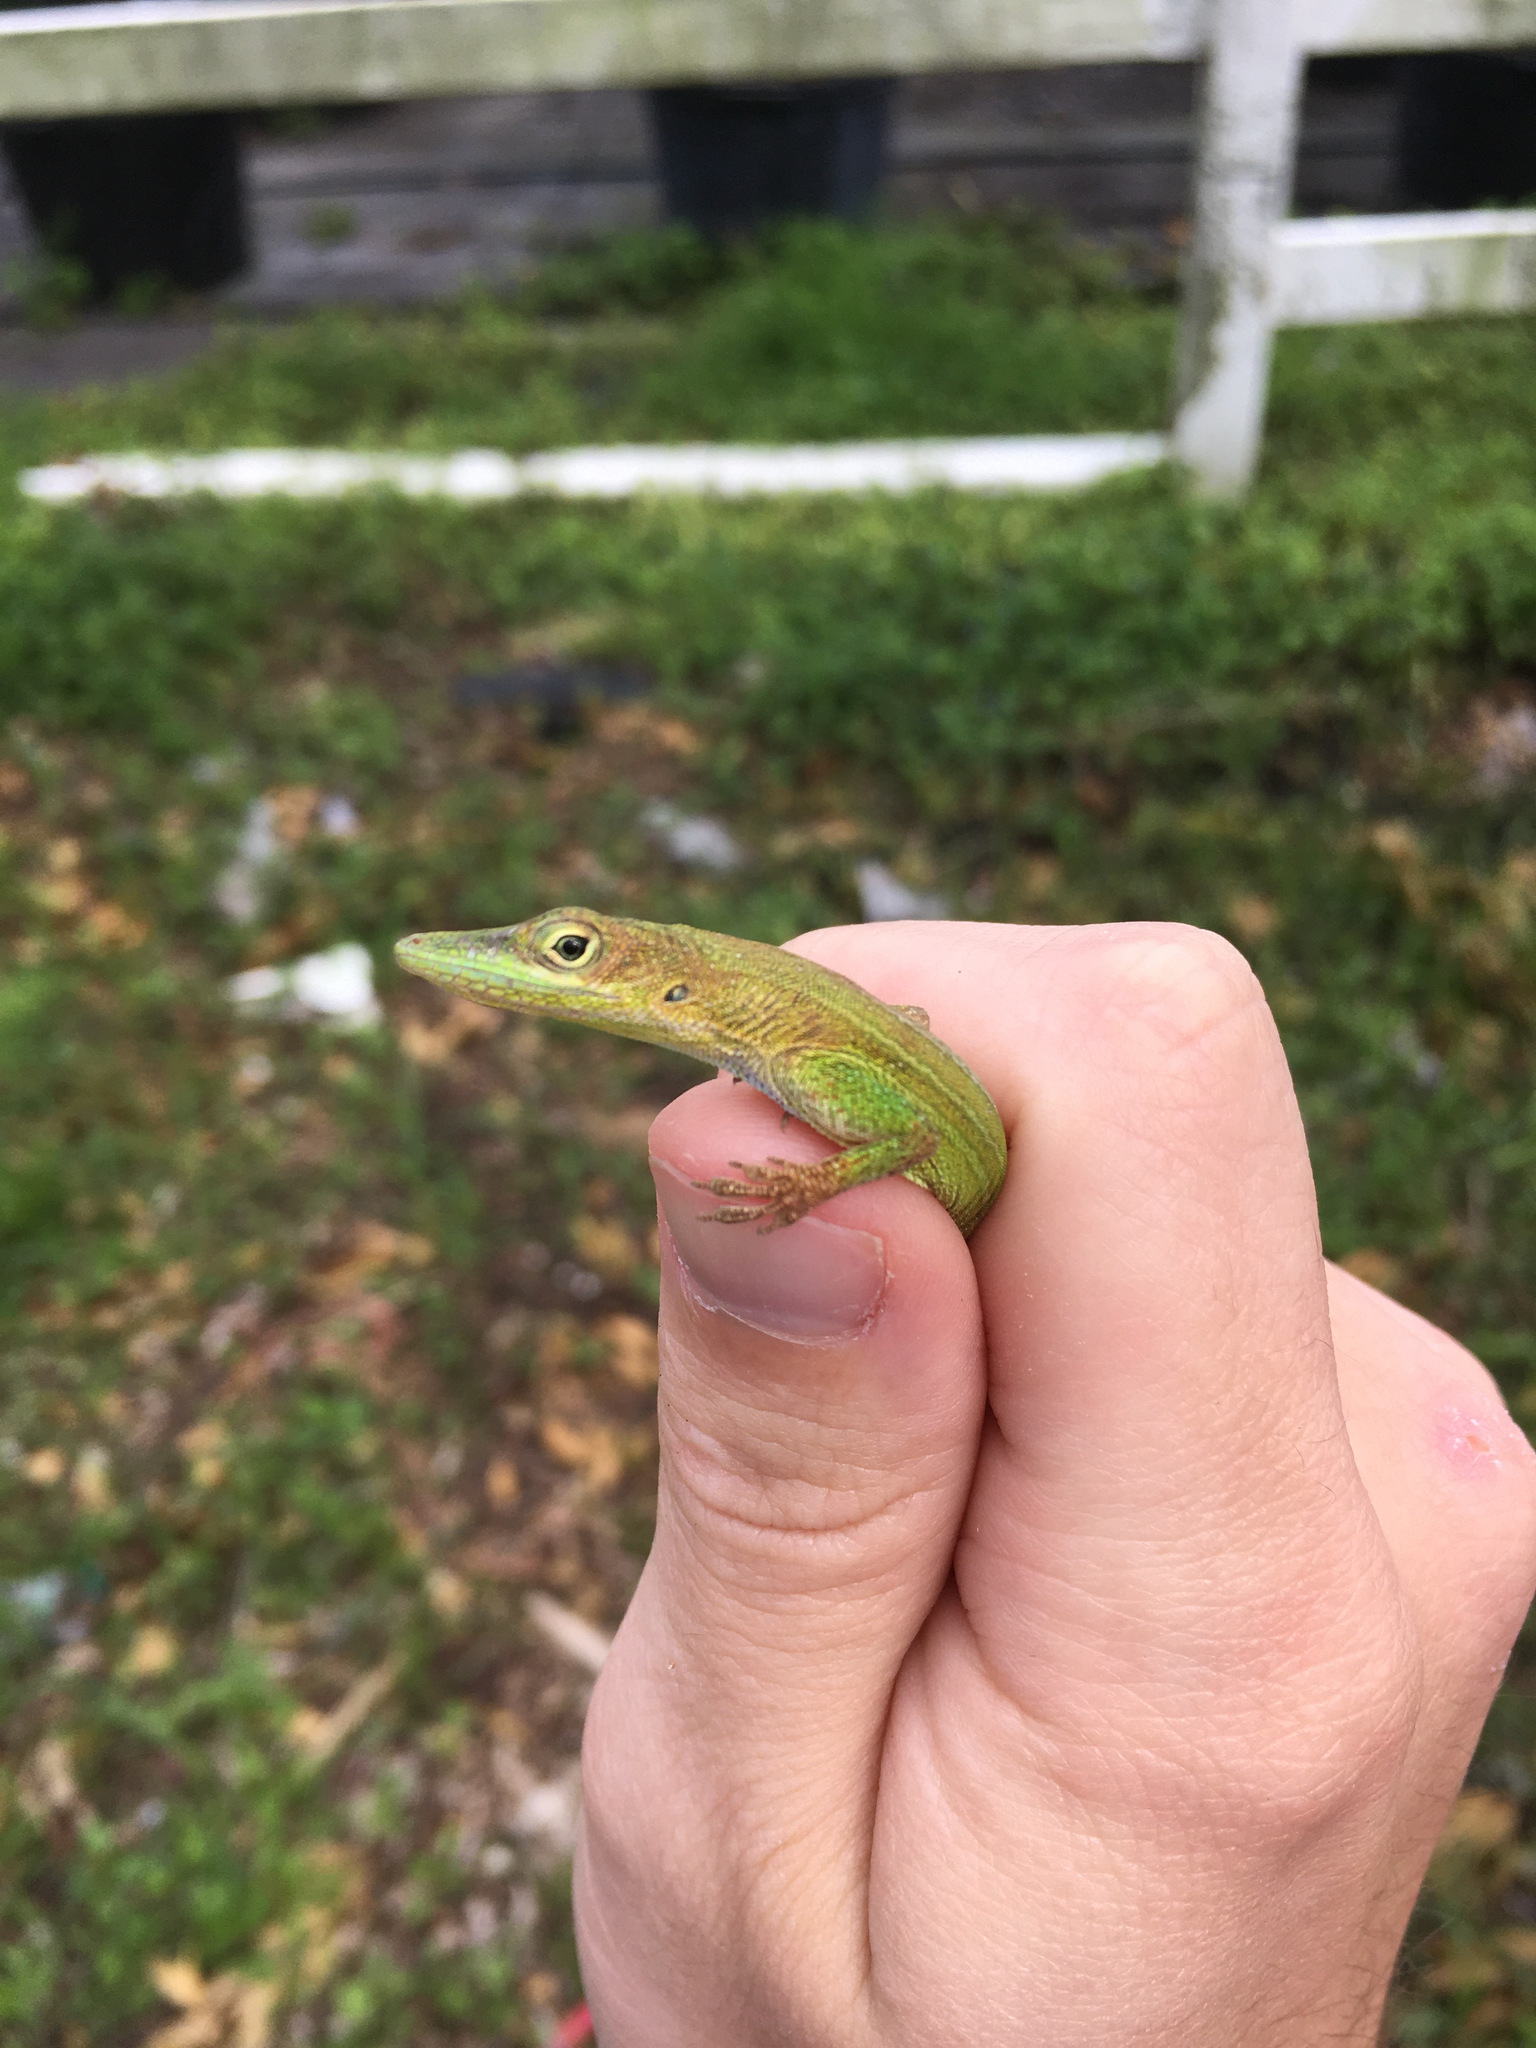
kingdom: Animalia
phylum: Chordata
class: Squamata
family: Dactyloidae
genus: Anolis
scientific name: Anolis chlorocyanus
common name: Hispaniolan green anole
